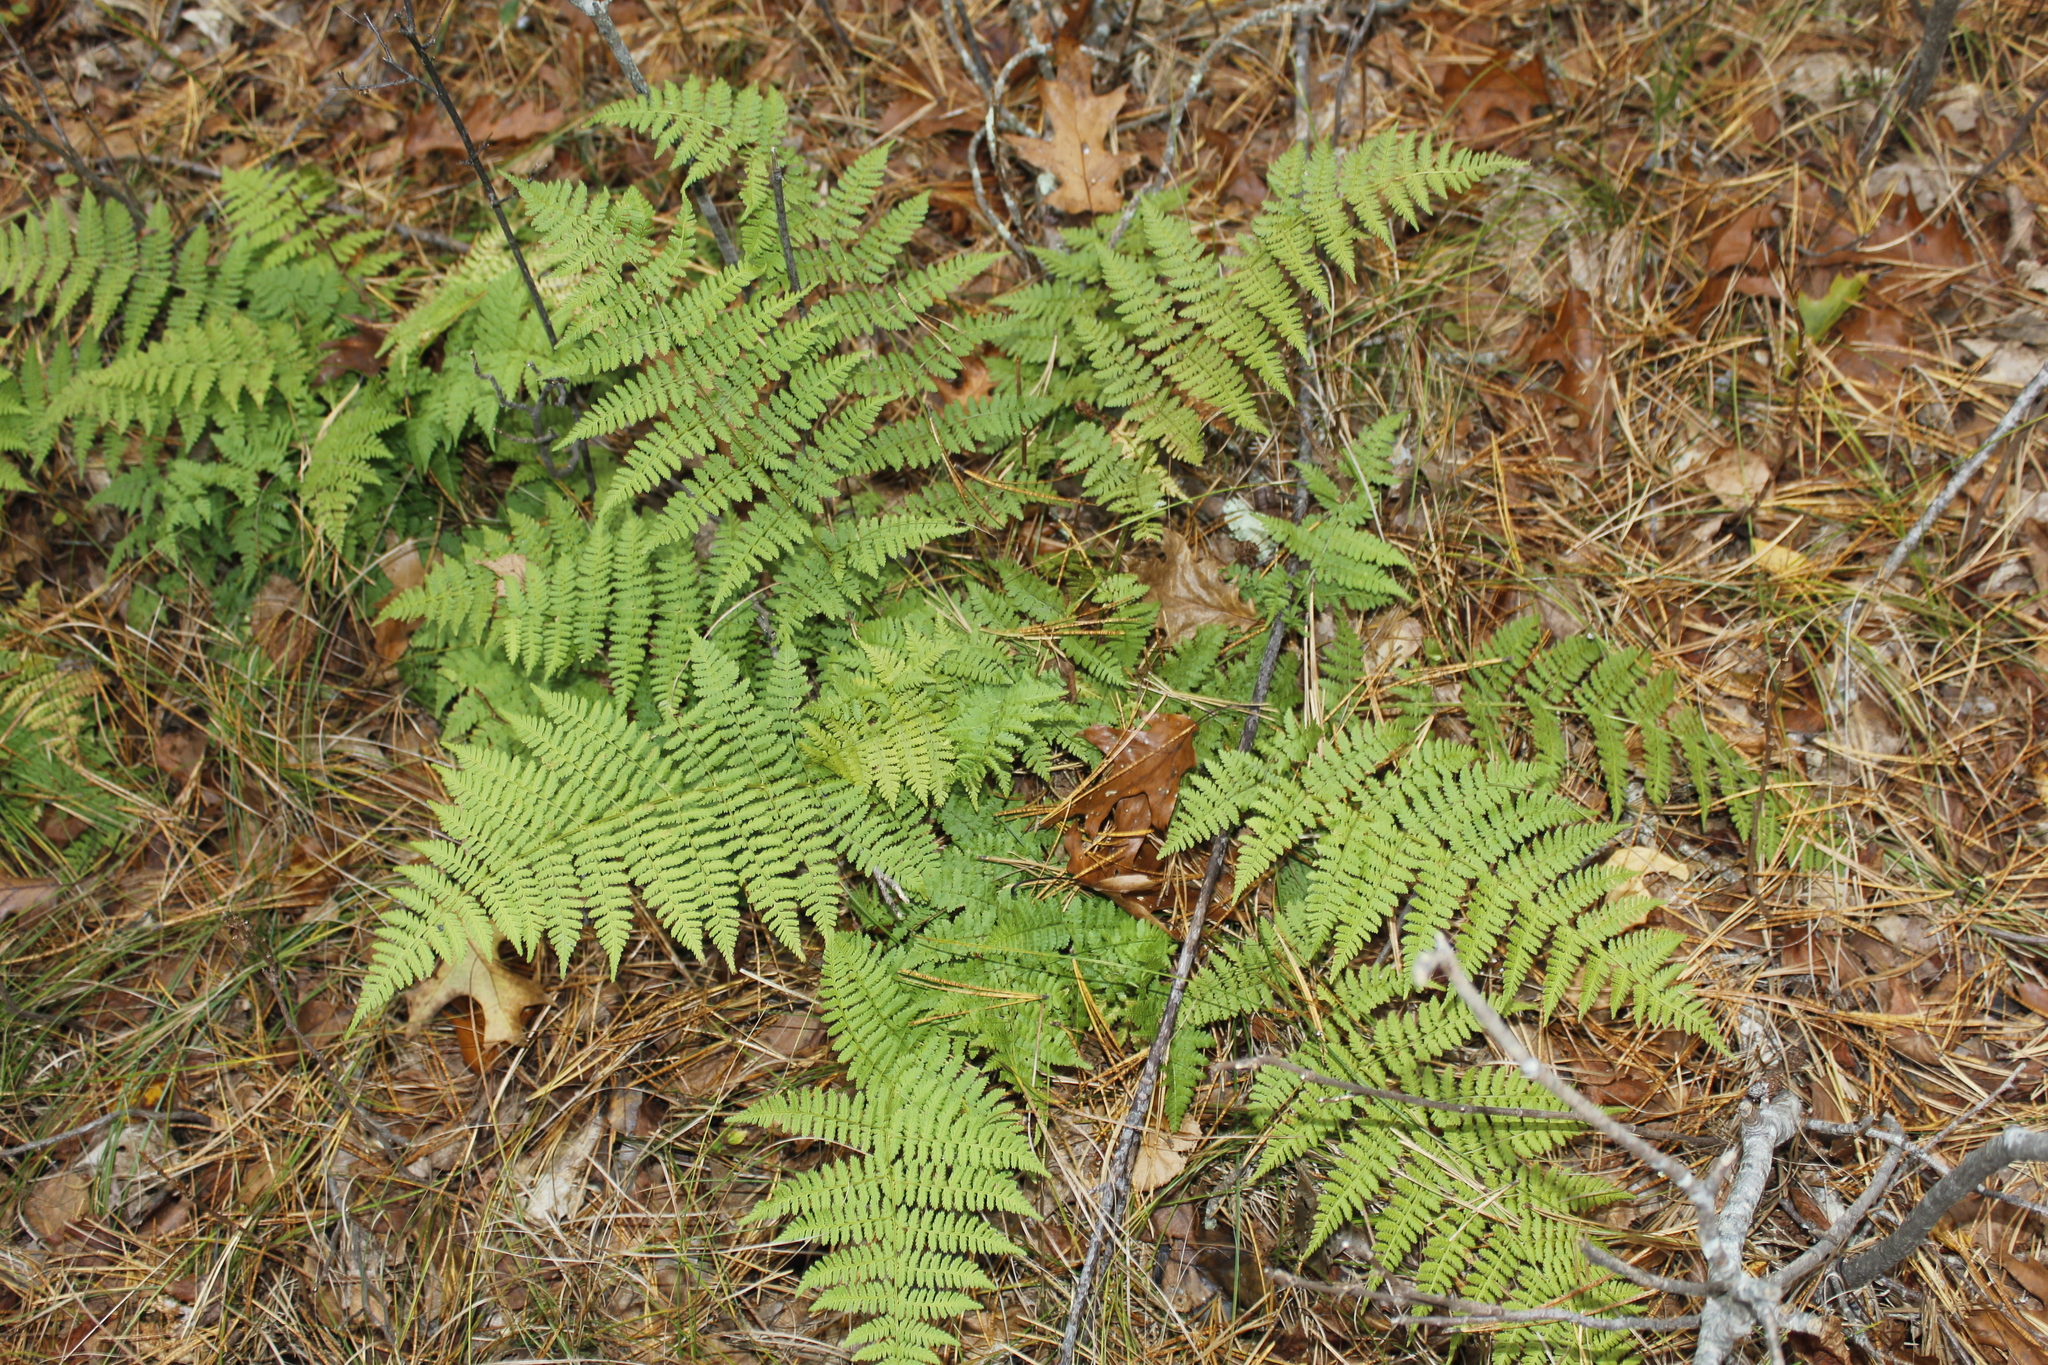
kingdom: Plantae
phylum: Tracheophyta
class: Polypodiopsida
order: Polypodiales
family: Dryopteridaceae
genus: Dryopteris
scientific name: Dryopteris intermedia
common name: Evergreen wood fern
